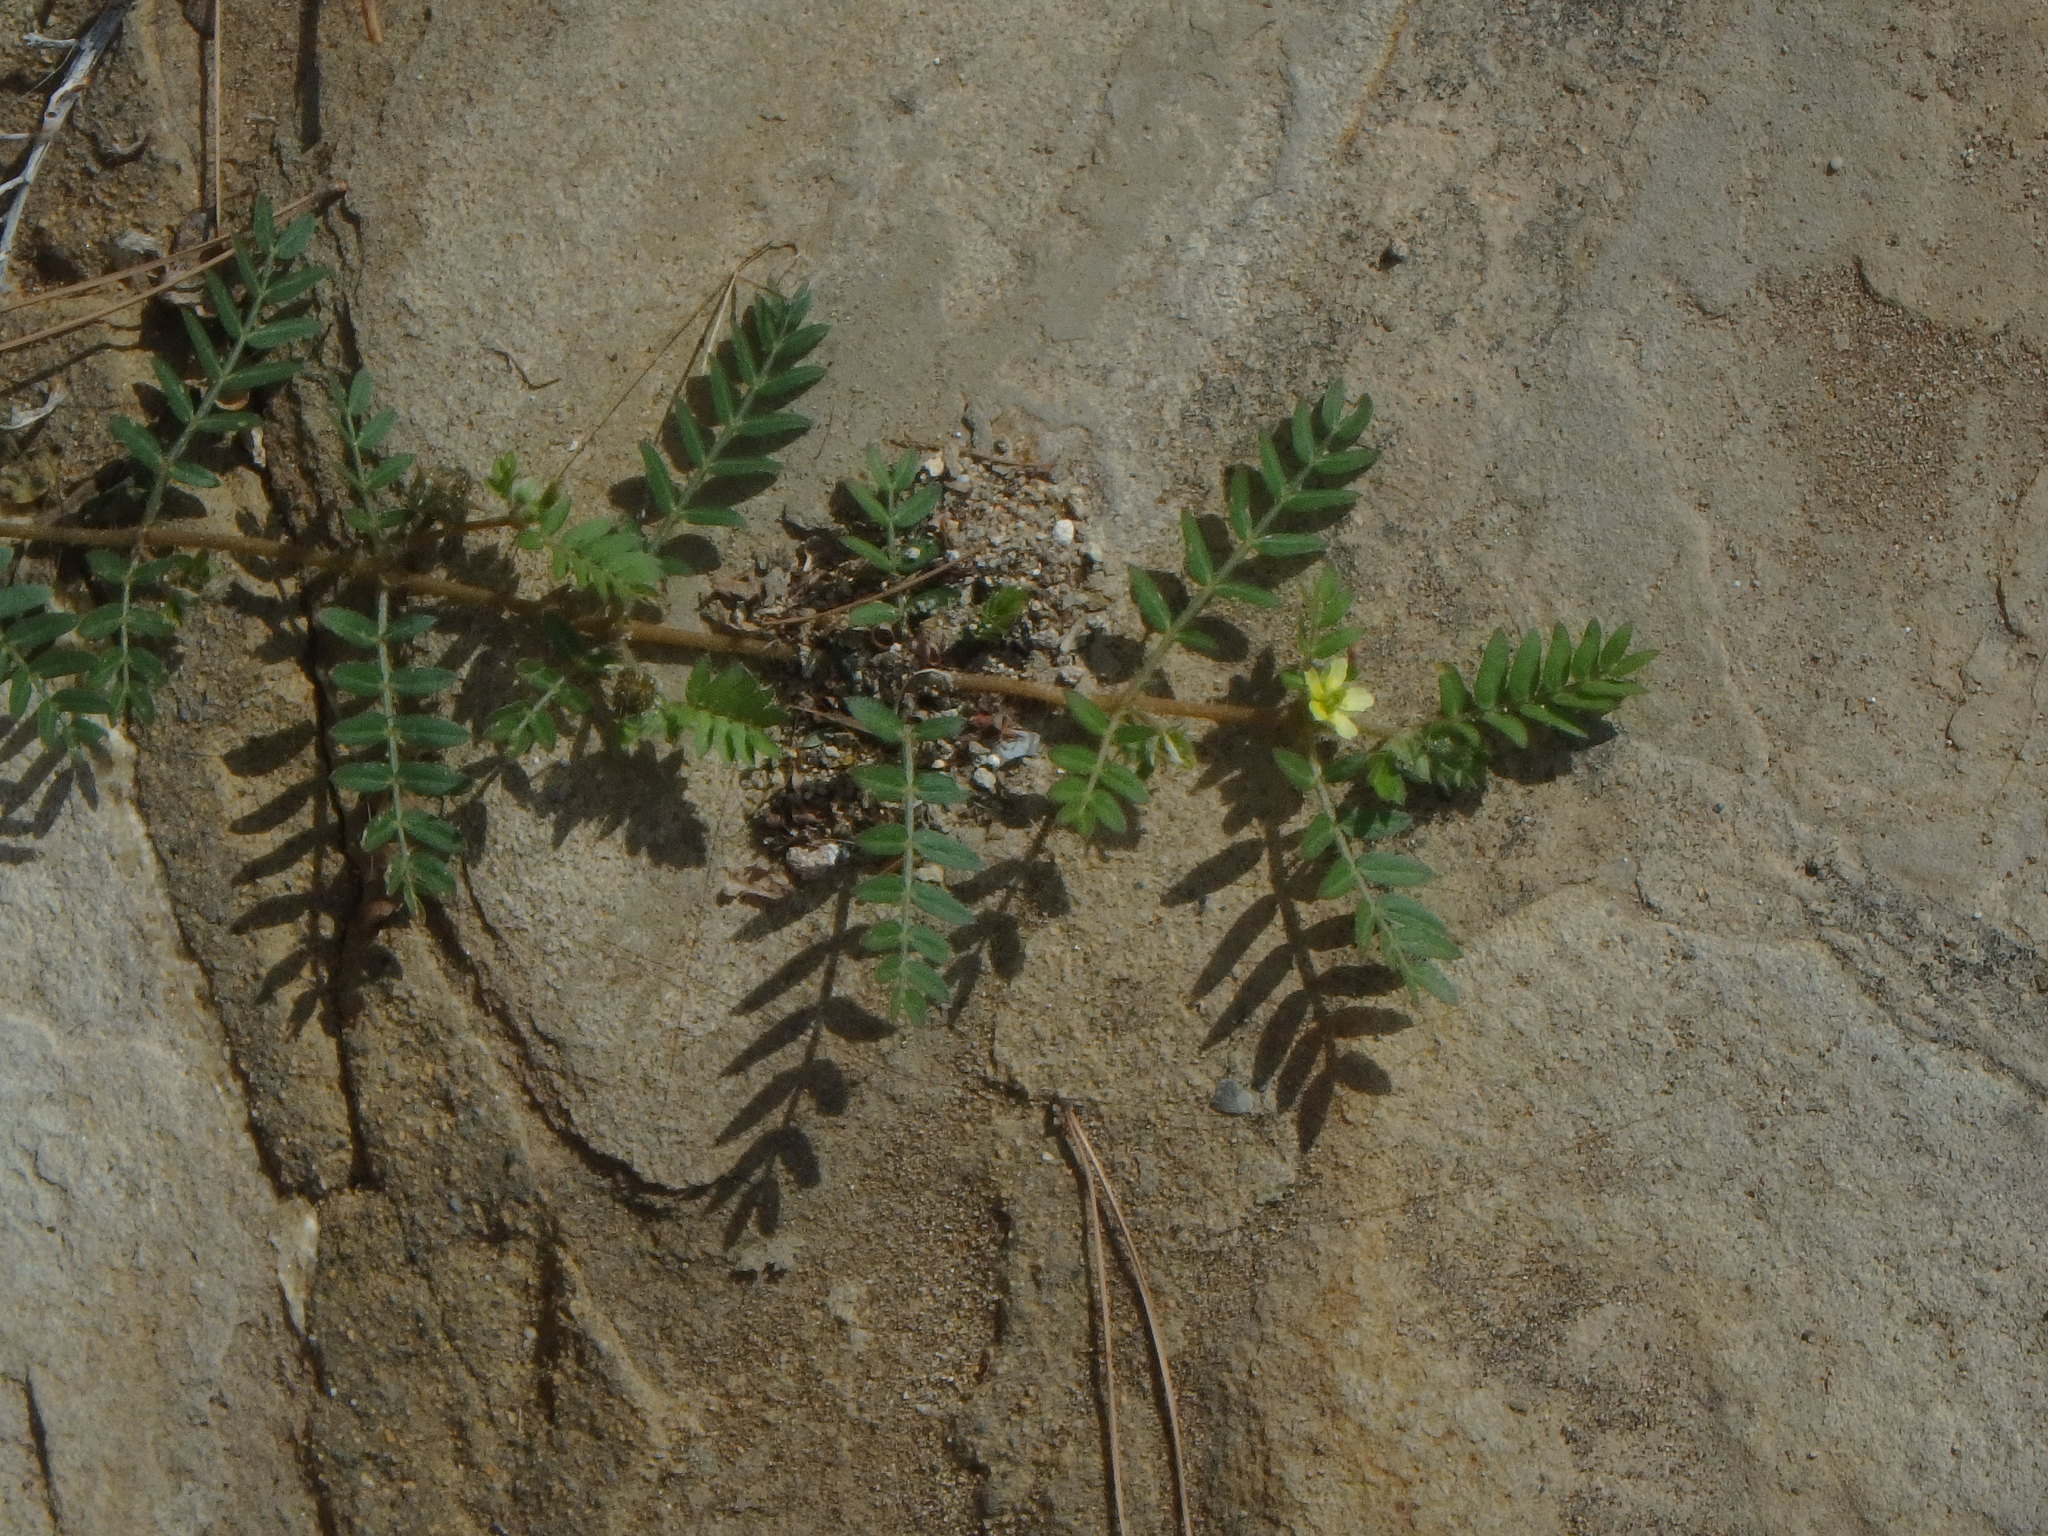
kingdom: Plantae
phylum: Tracheophyta
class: Magnoliopsida
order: Zygophyllales
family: Zygophyllaceae
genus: Tribulus
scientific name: Tribulus terrestris
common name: Puncturevine
